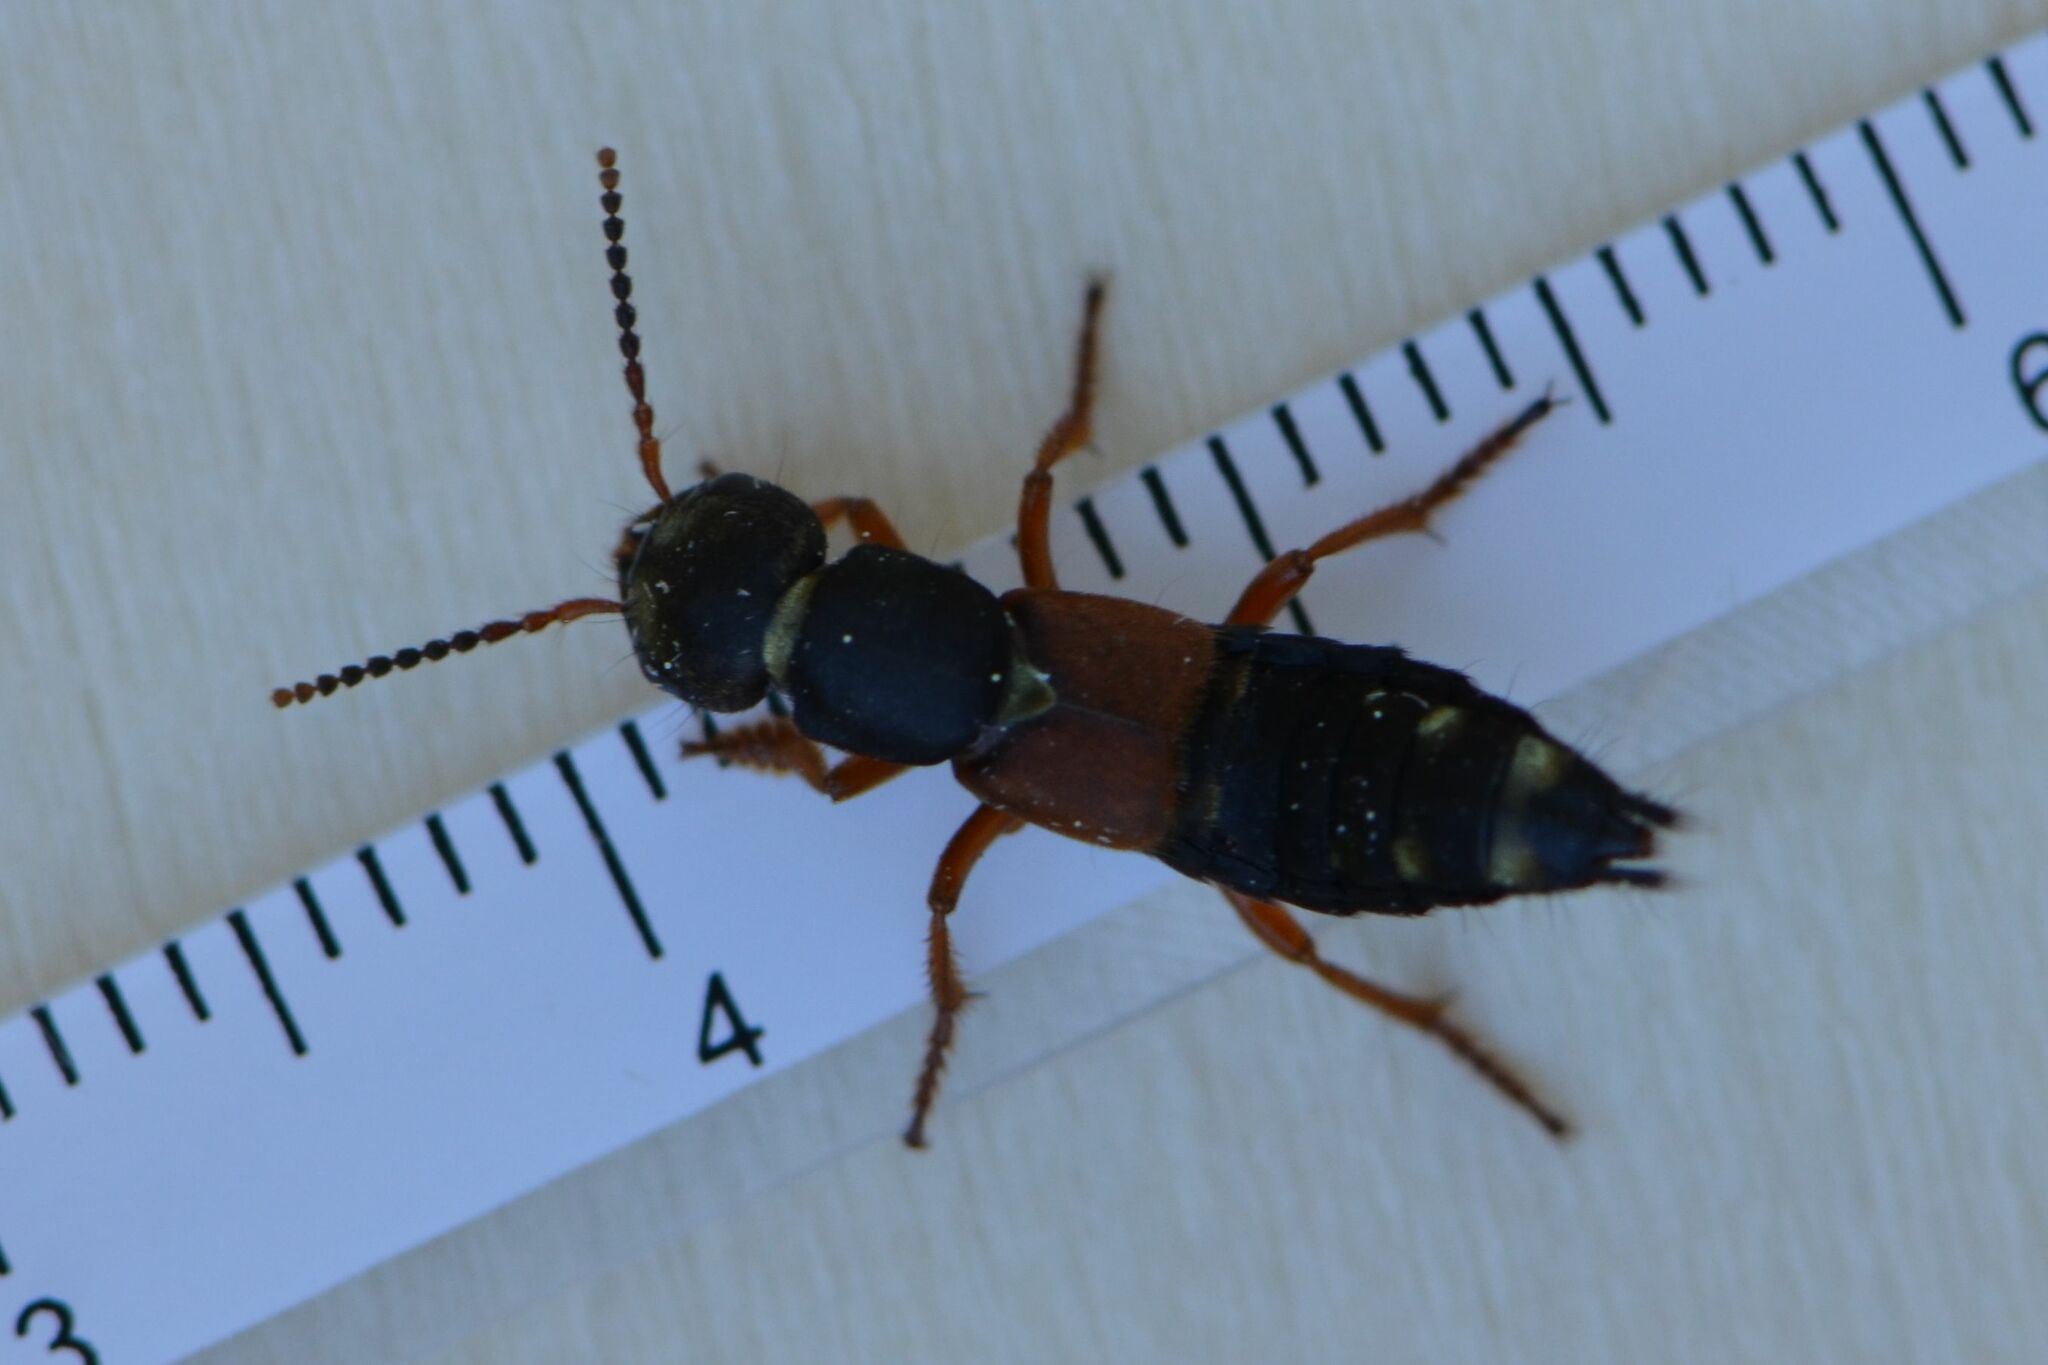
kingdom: Animalia
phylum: Arthropoda
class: Insecta
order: Coleoptera
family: Staphylinidae
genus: Staphylinus
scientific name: Staphylinus erythropterus
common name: Staph beetle
